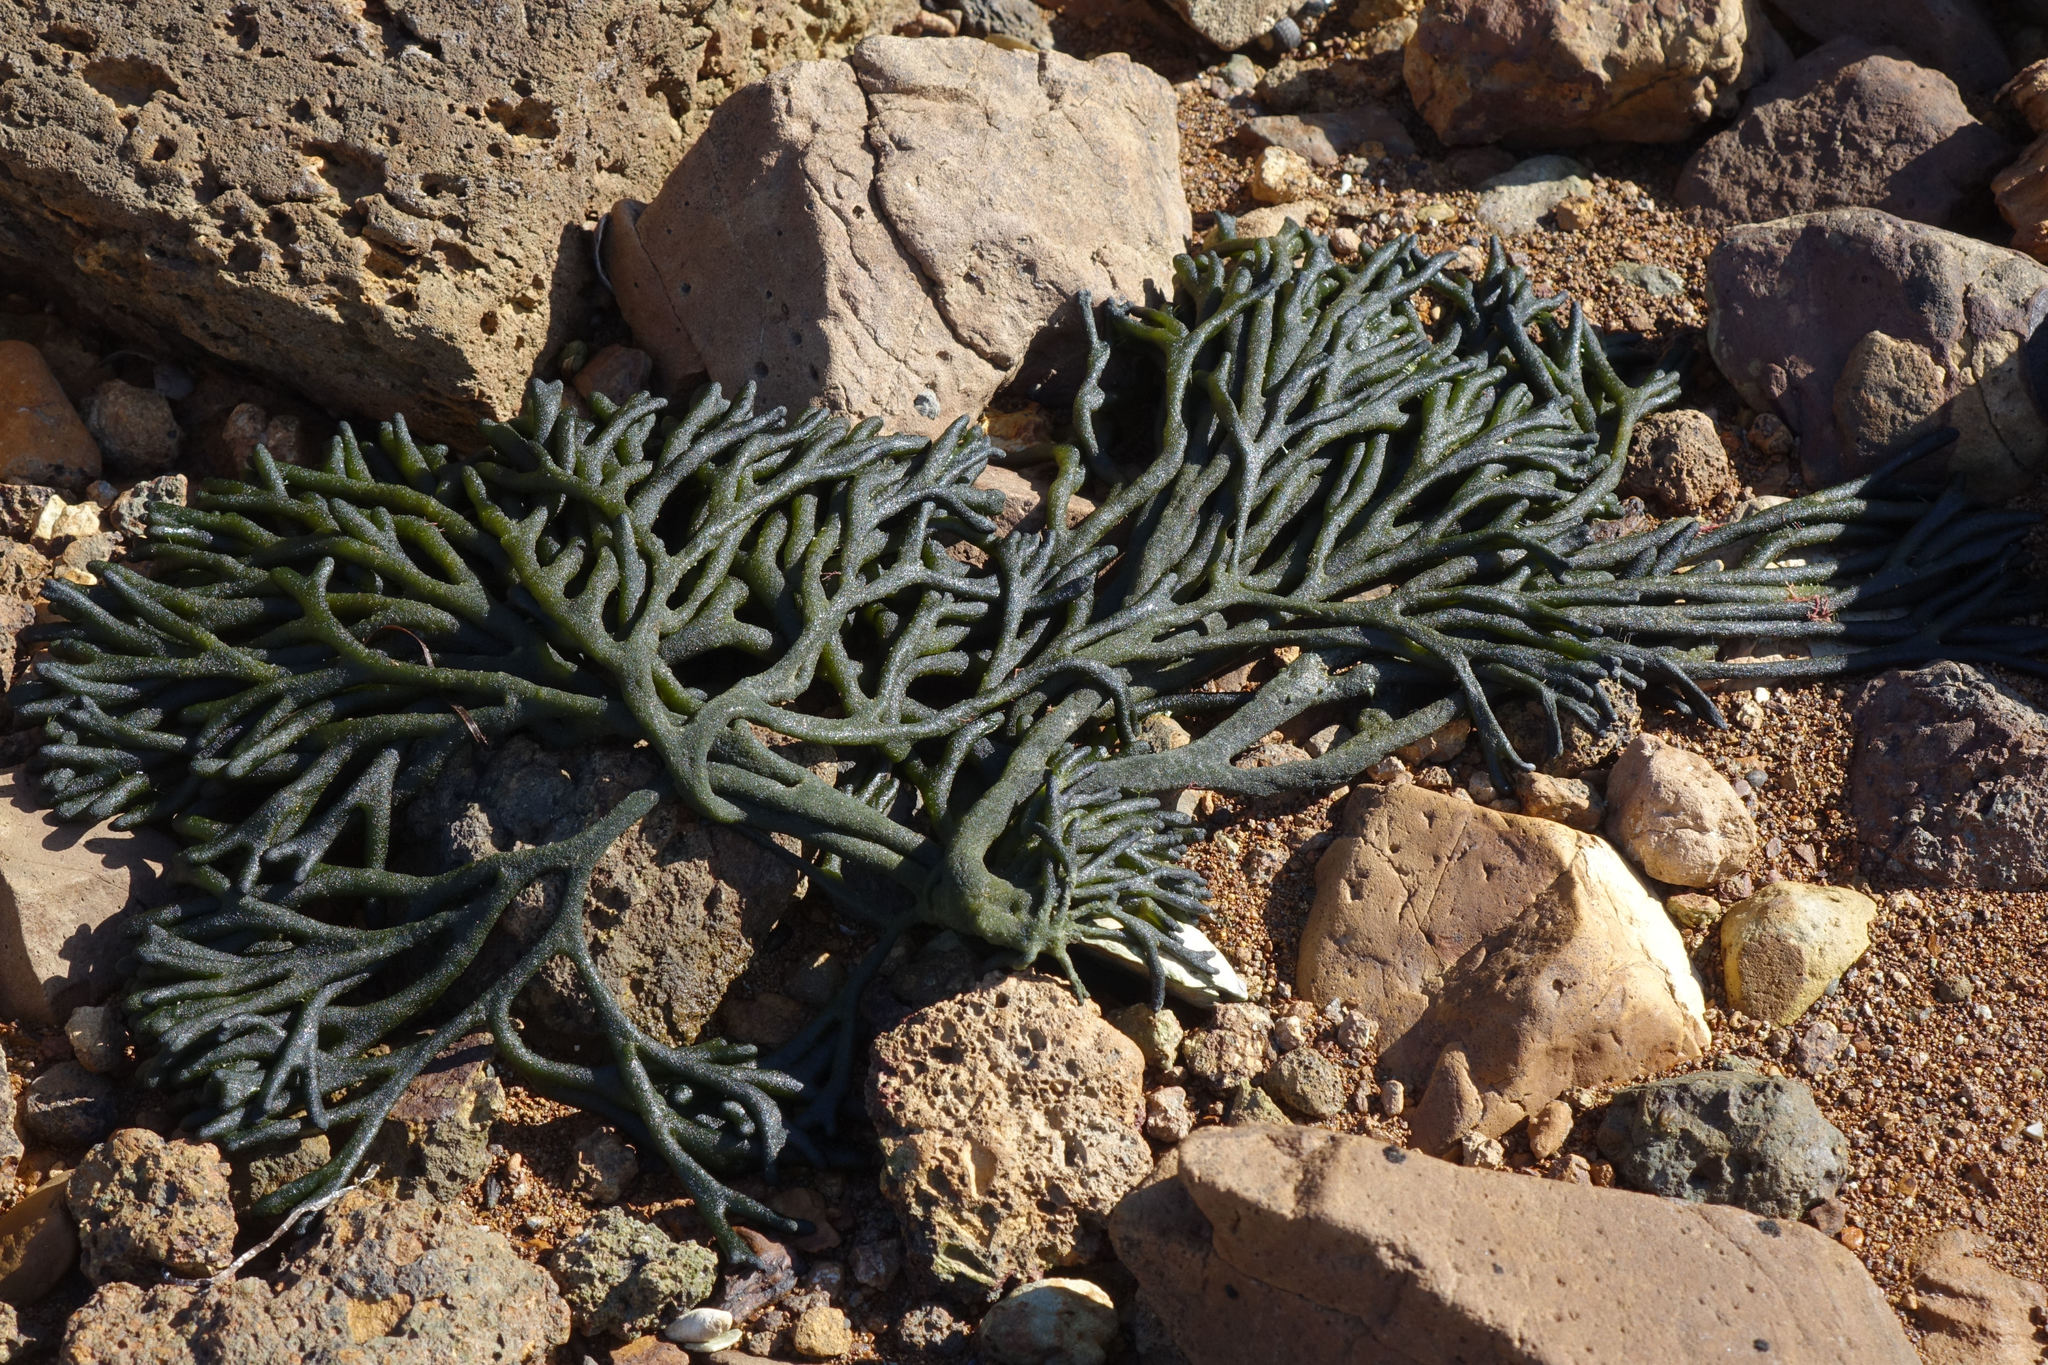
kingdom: Plantae
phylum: Chlorophyta
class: Ulvophyceae
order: Bryopsidales
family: Codiaceae
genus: Codium
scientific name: Codium fragile
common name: Dead man's fingers
